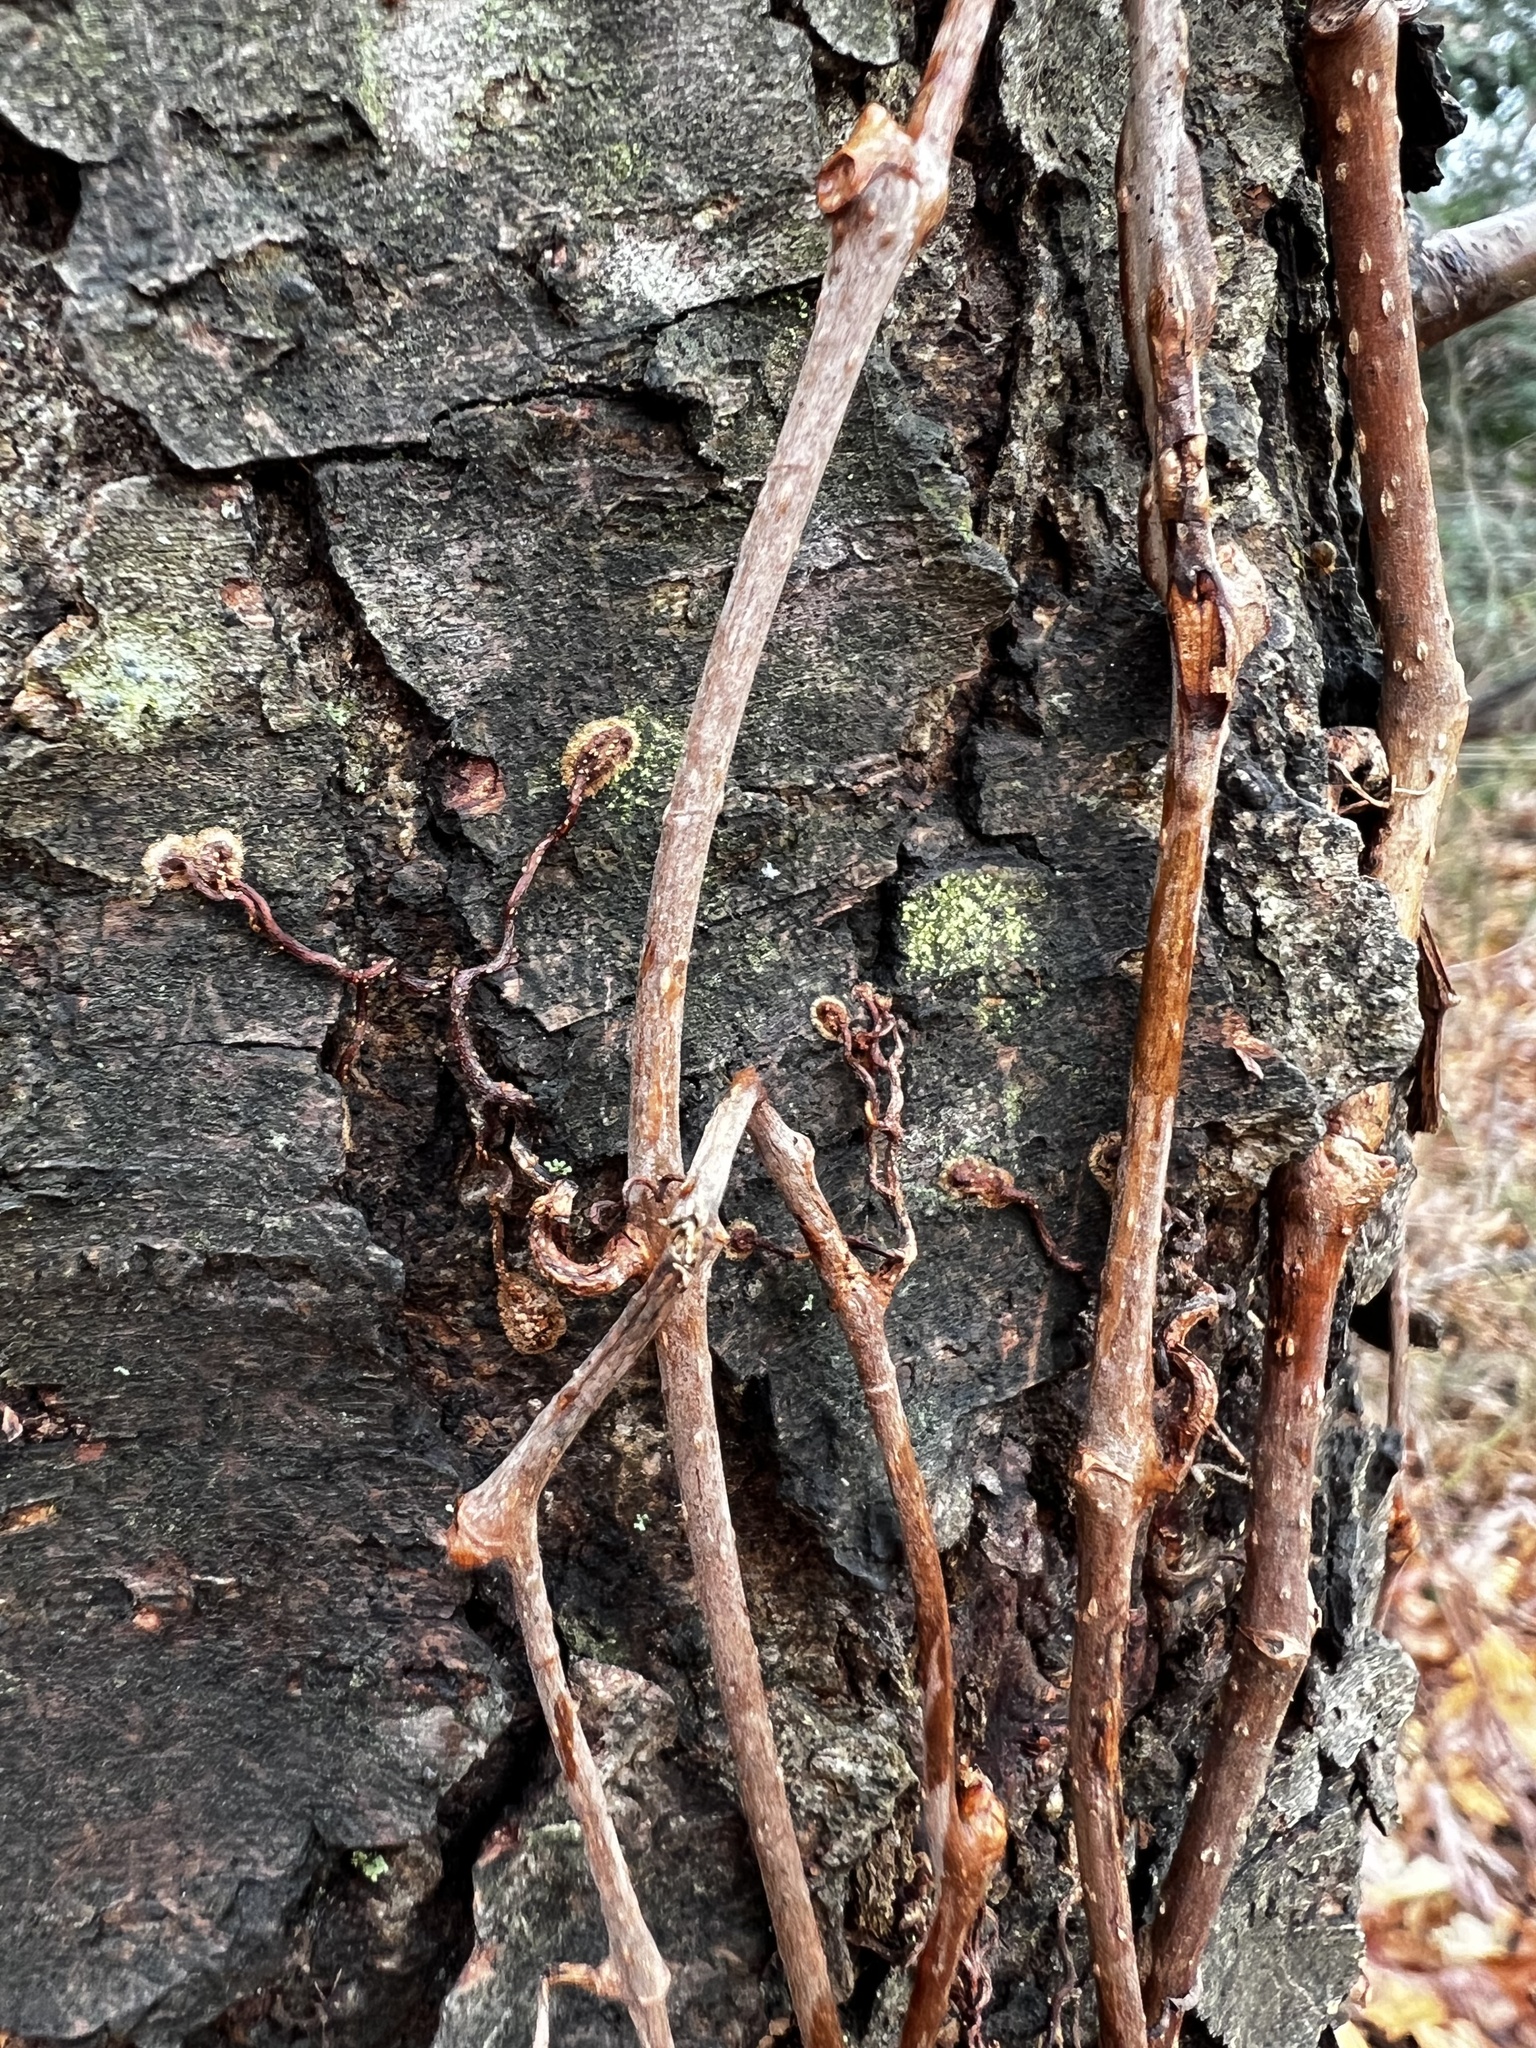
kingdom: Plantae
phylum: Tracheophyta
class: Magnoliopsida
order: Vitales
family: Vitaceae
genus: Parthenocissus
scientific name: Parthenocissus quinquefolia
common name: Virginia-creeper
